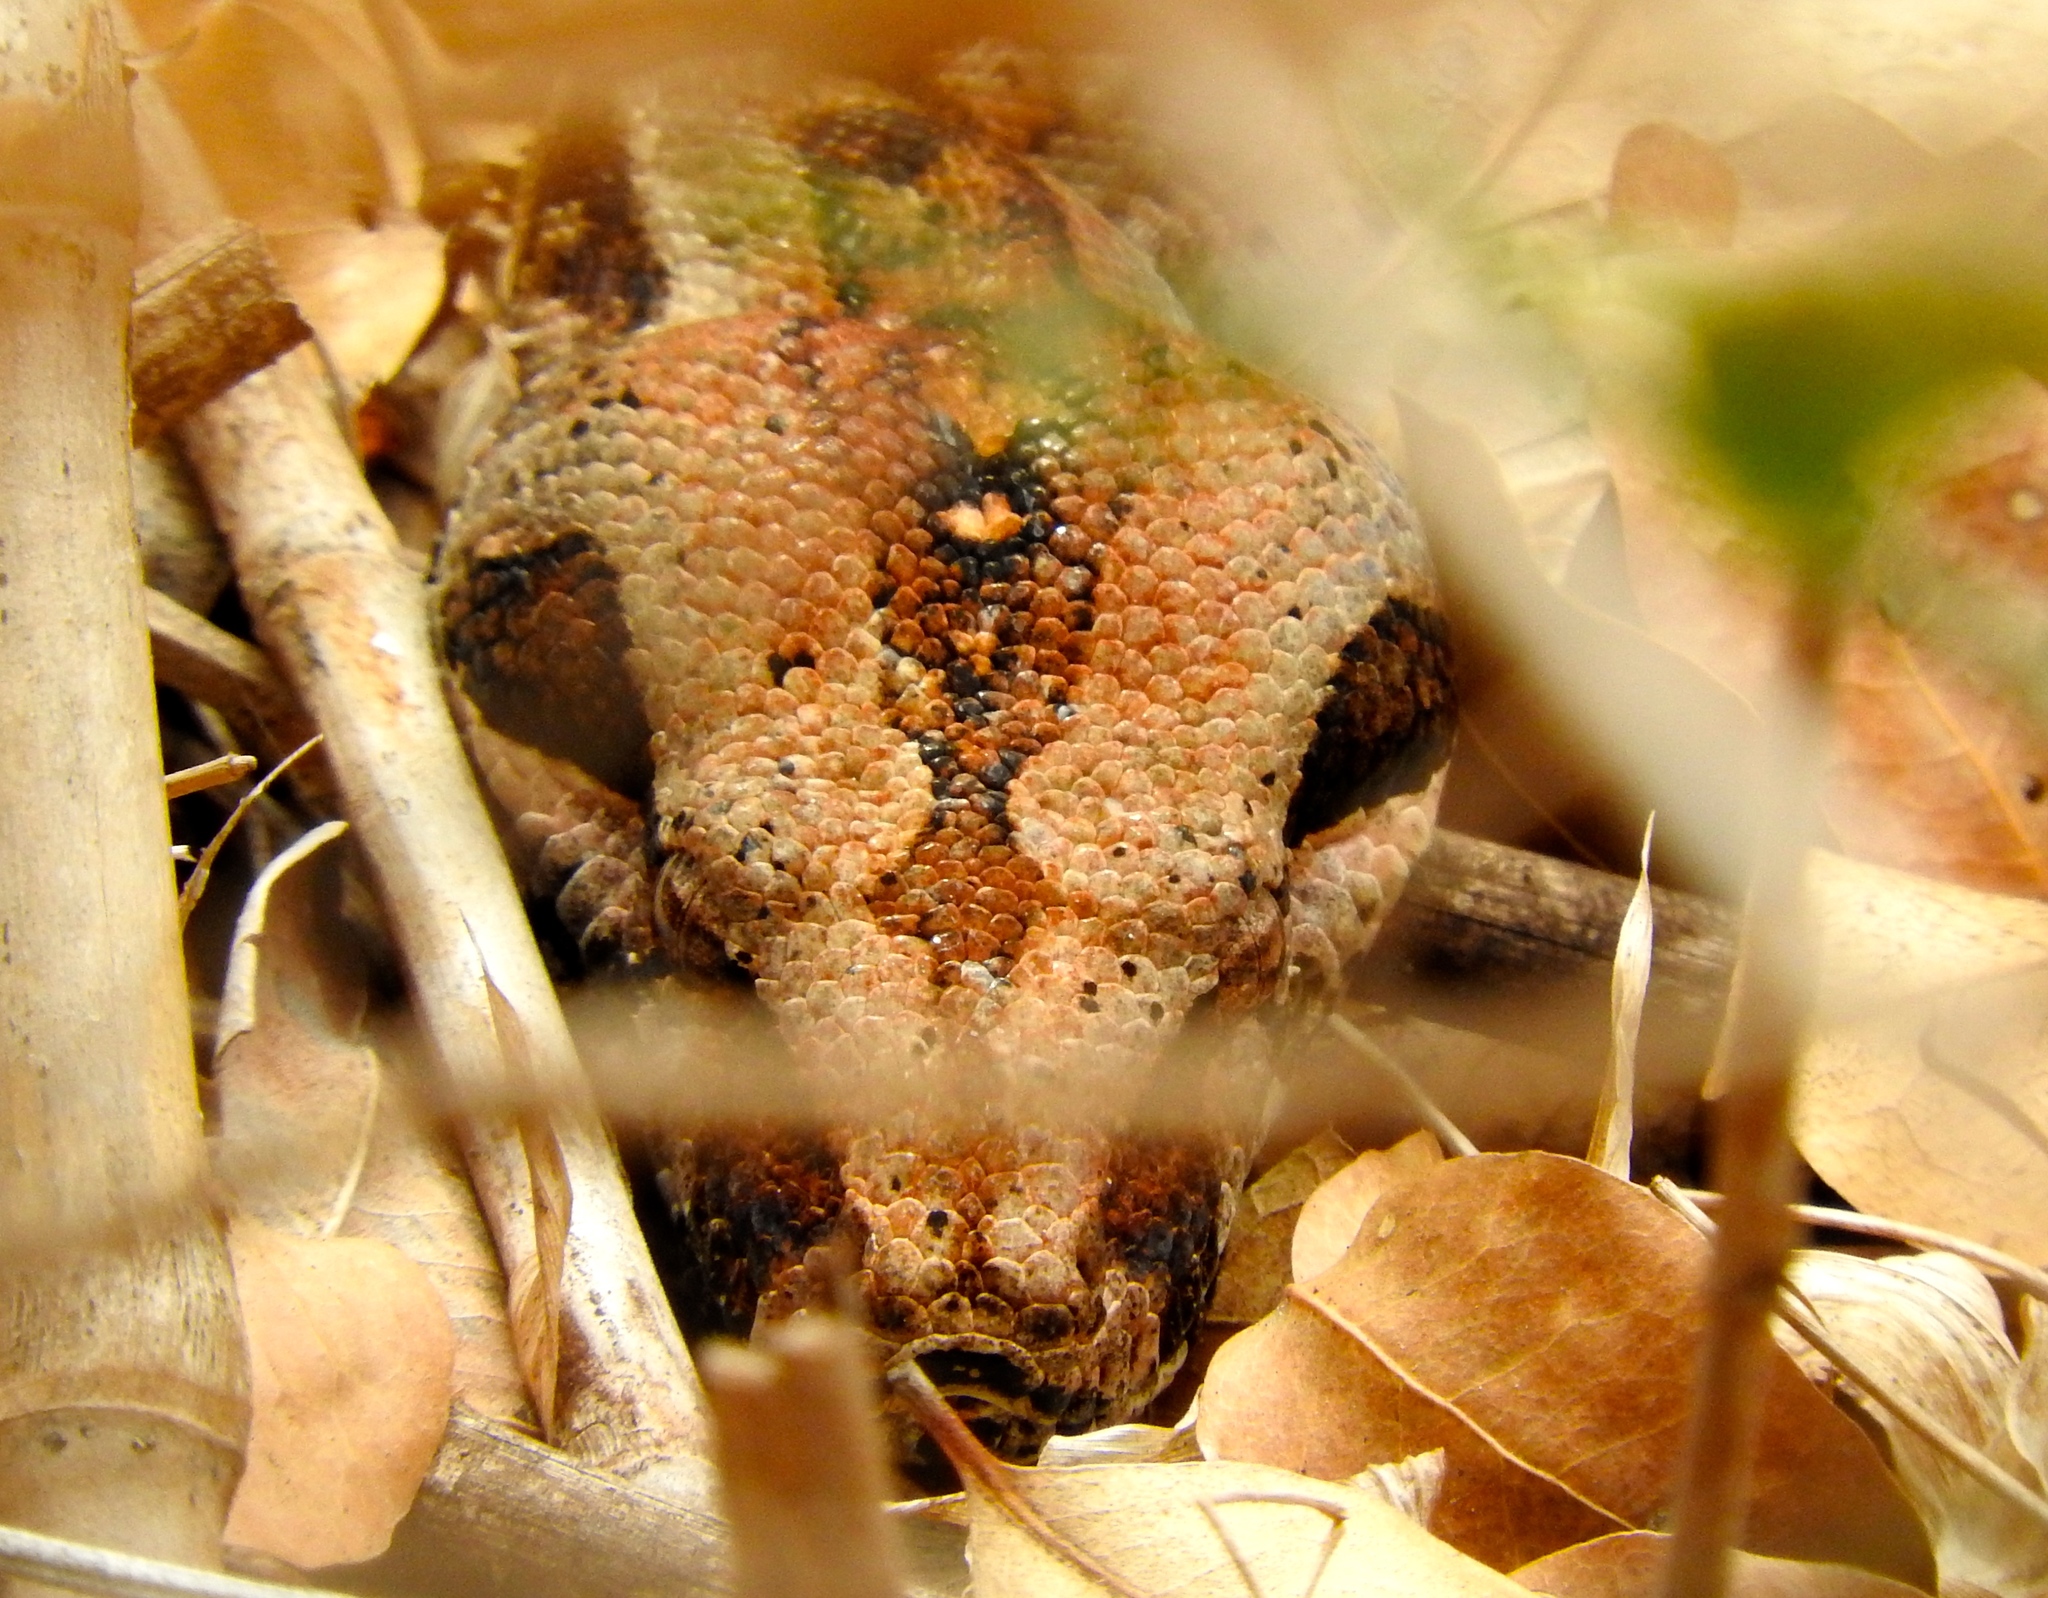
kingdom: Animalia
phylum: Chordata
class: Squamata
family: Boidae
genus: Boa
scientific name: Boa
